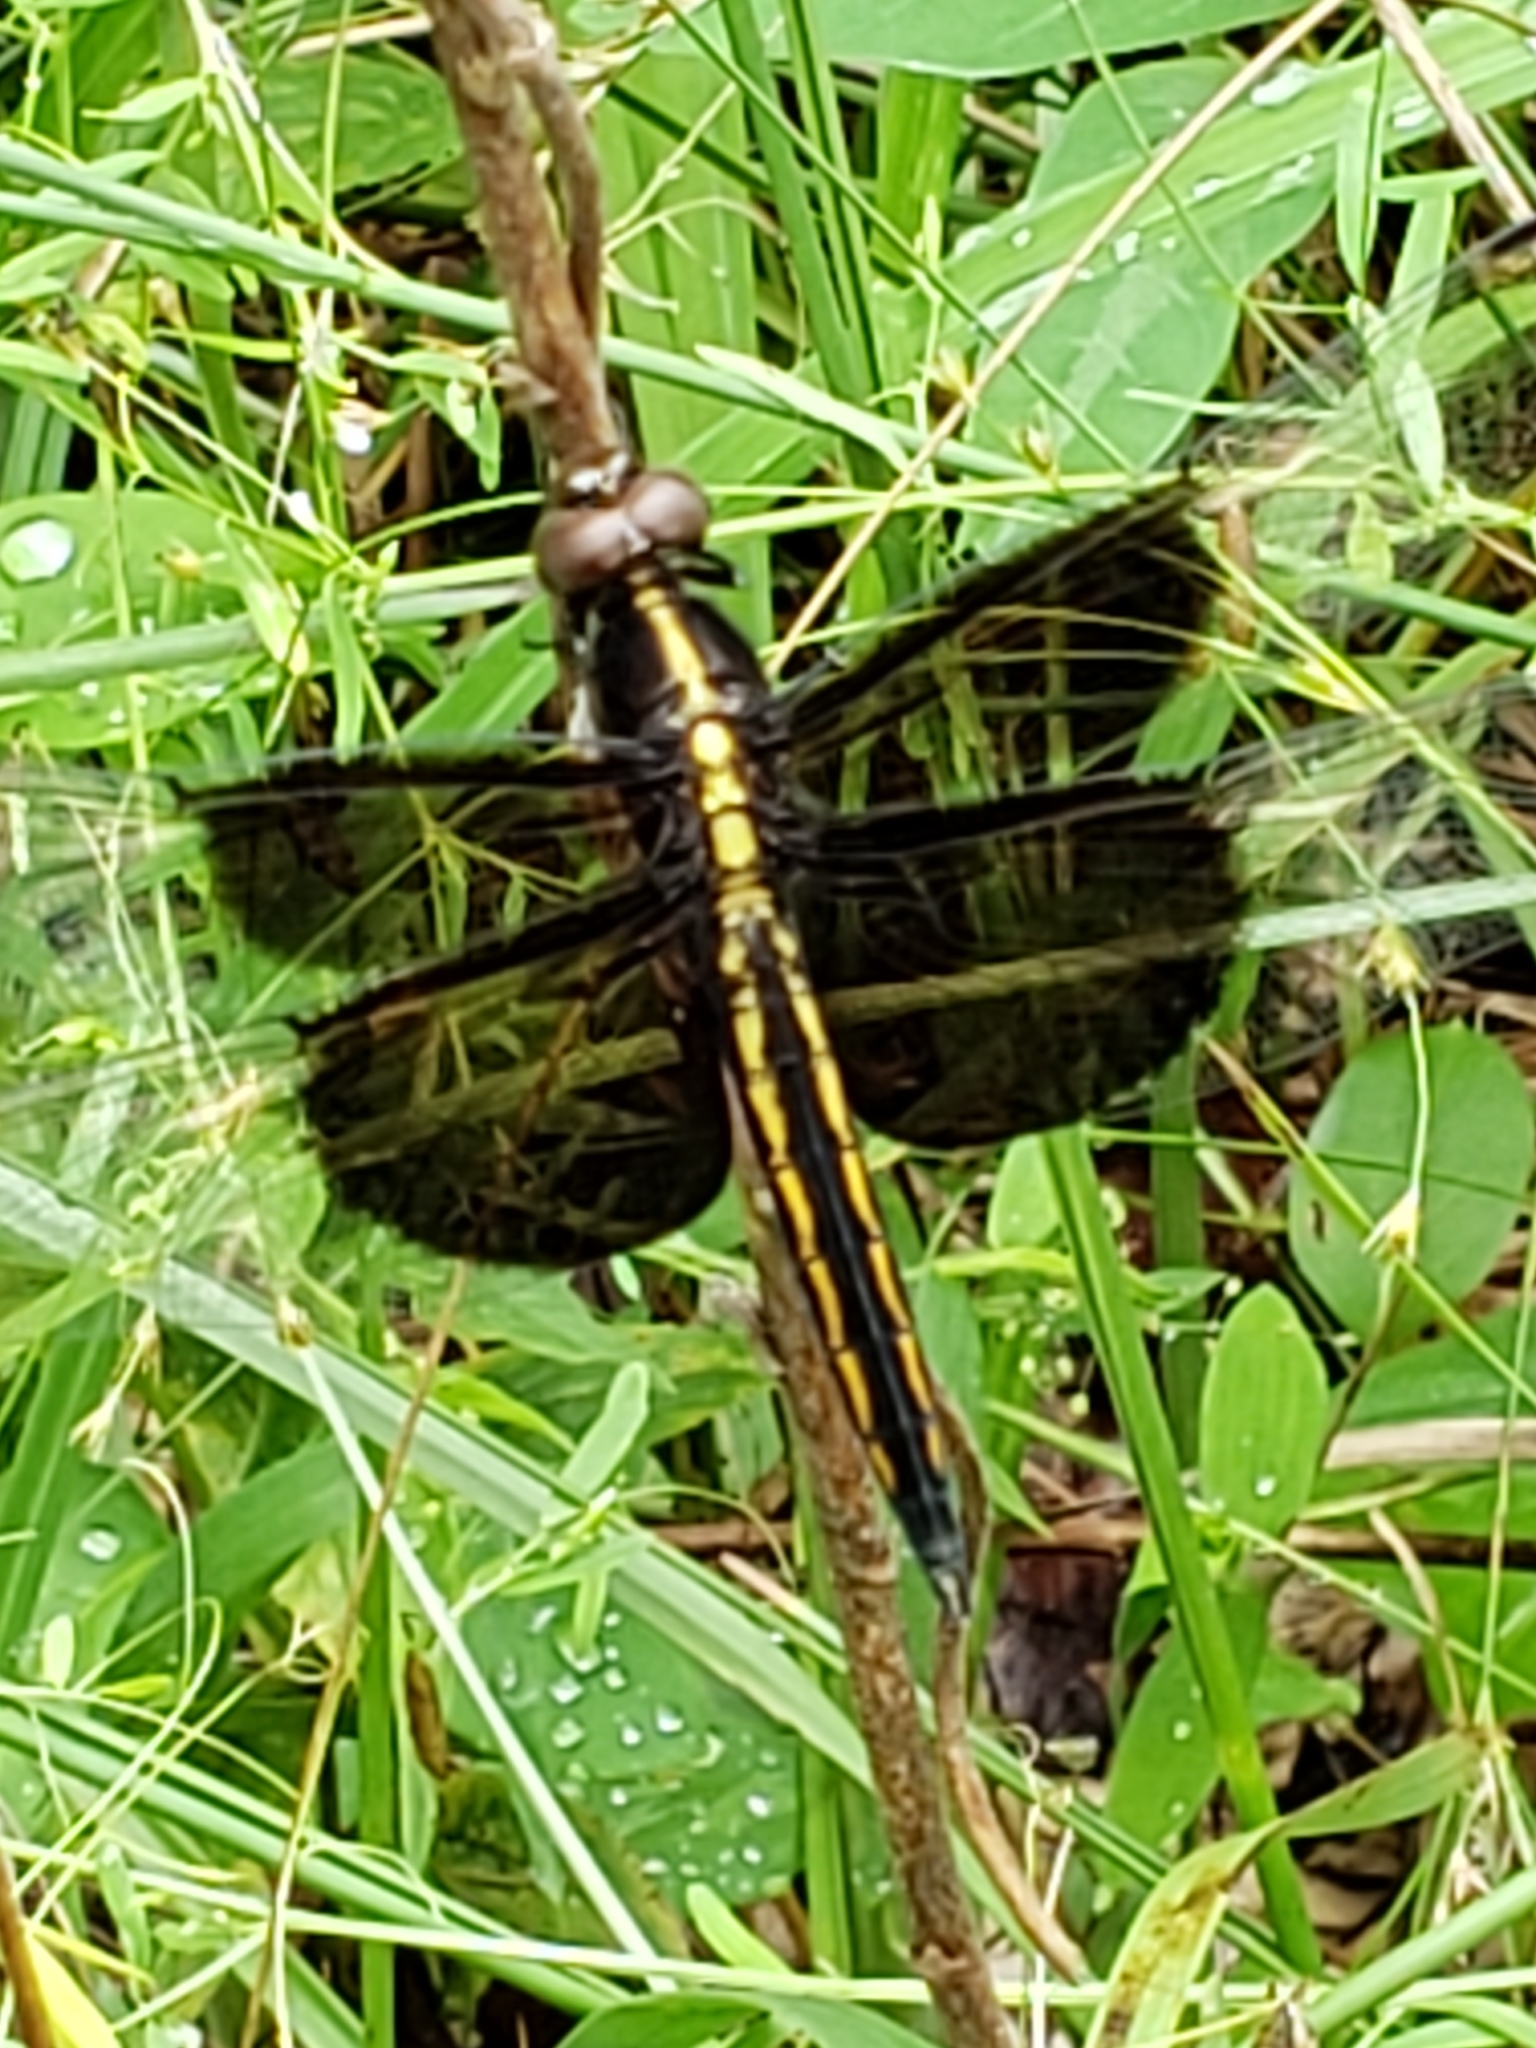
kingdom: Animalia
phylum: Arthropoda
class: Insecta
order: Odonata
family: Libellulidae
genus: Libellula
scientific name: Libellula luctuosa
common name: Widow skimmer
